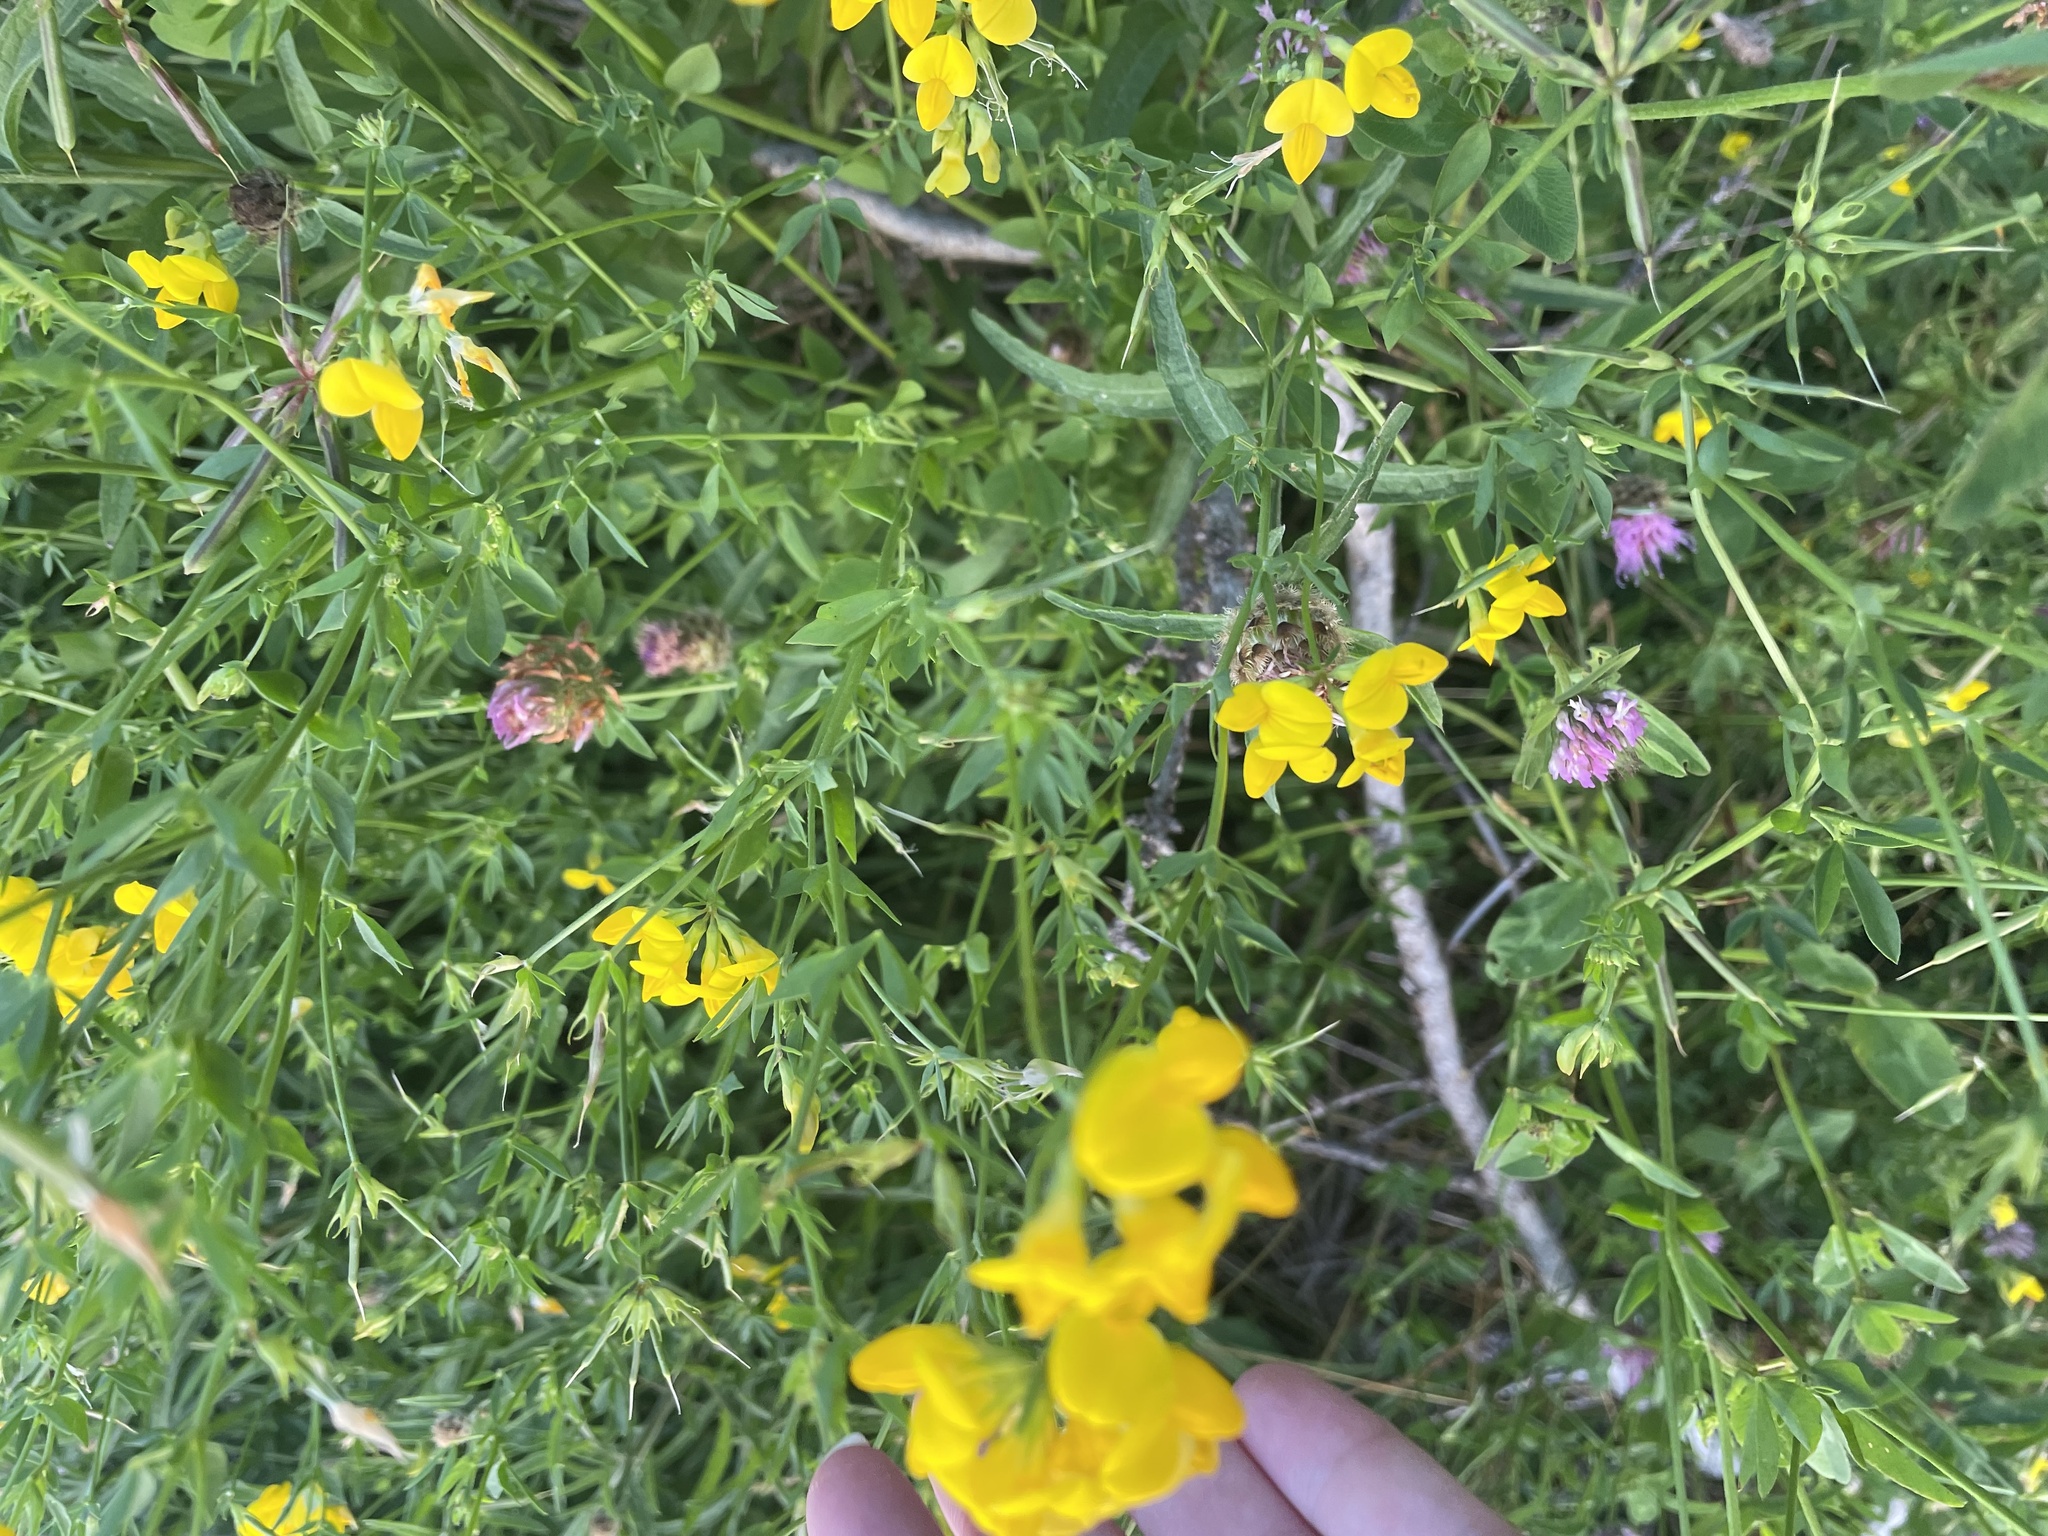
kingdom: Plantae
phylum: Tracheophyta
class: Magnoliopsida
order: Fabales
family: Fabaceae
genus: Lotus
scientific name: Lotus corniculatus
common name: Common bird's-foot-trefoil
